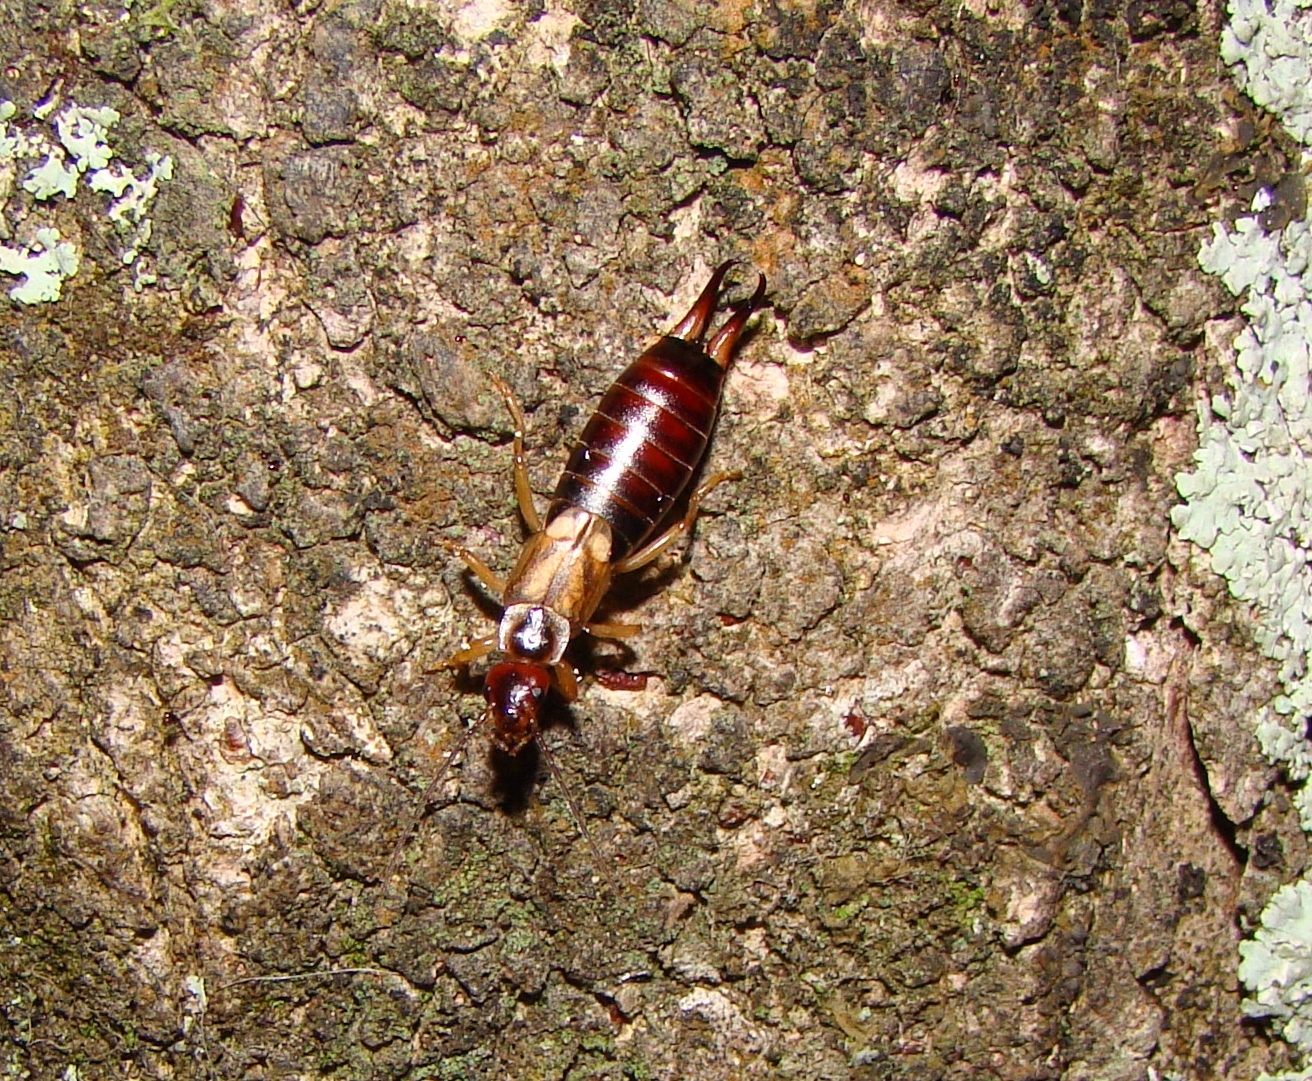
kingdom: Animalia
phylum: Arthropoda
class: Insecta
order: Dermaptera
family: Forficulidae
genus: Forficula
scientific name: Forficula
